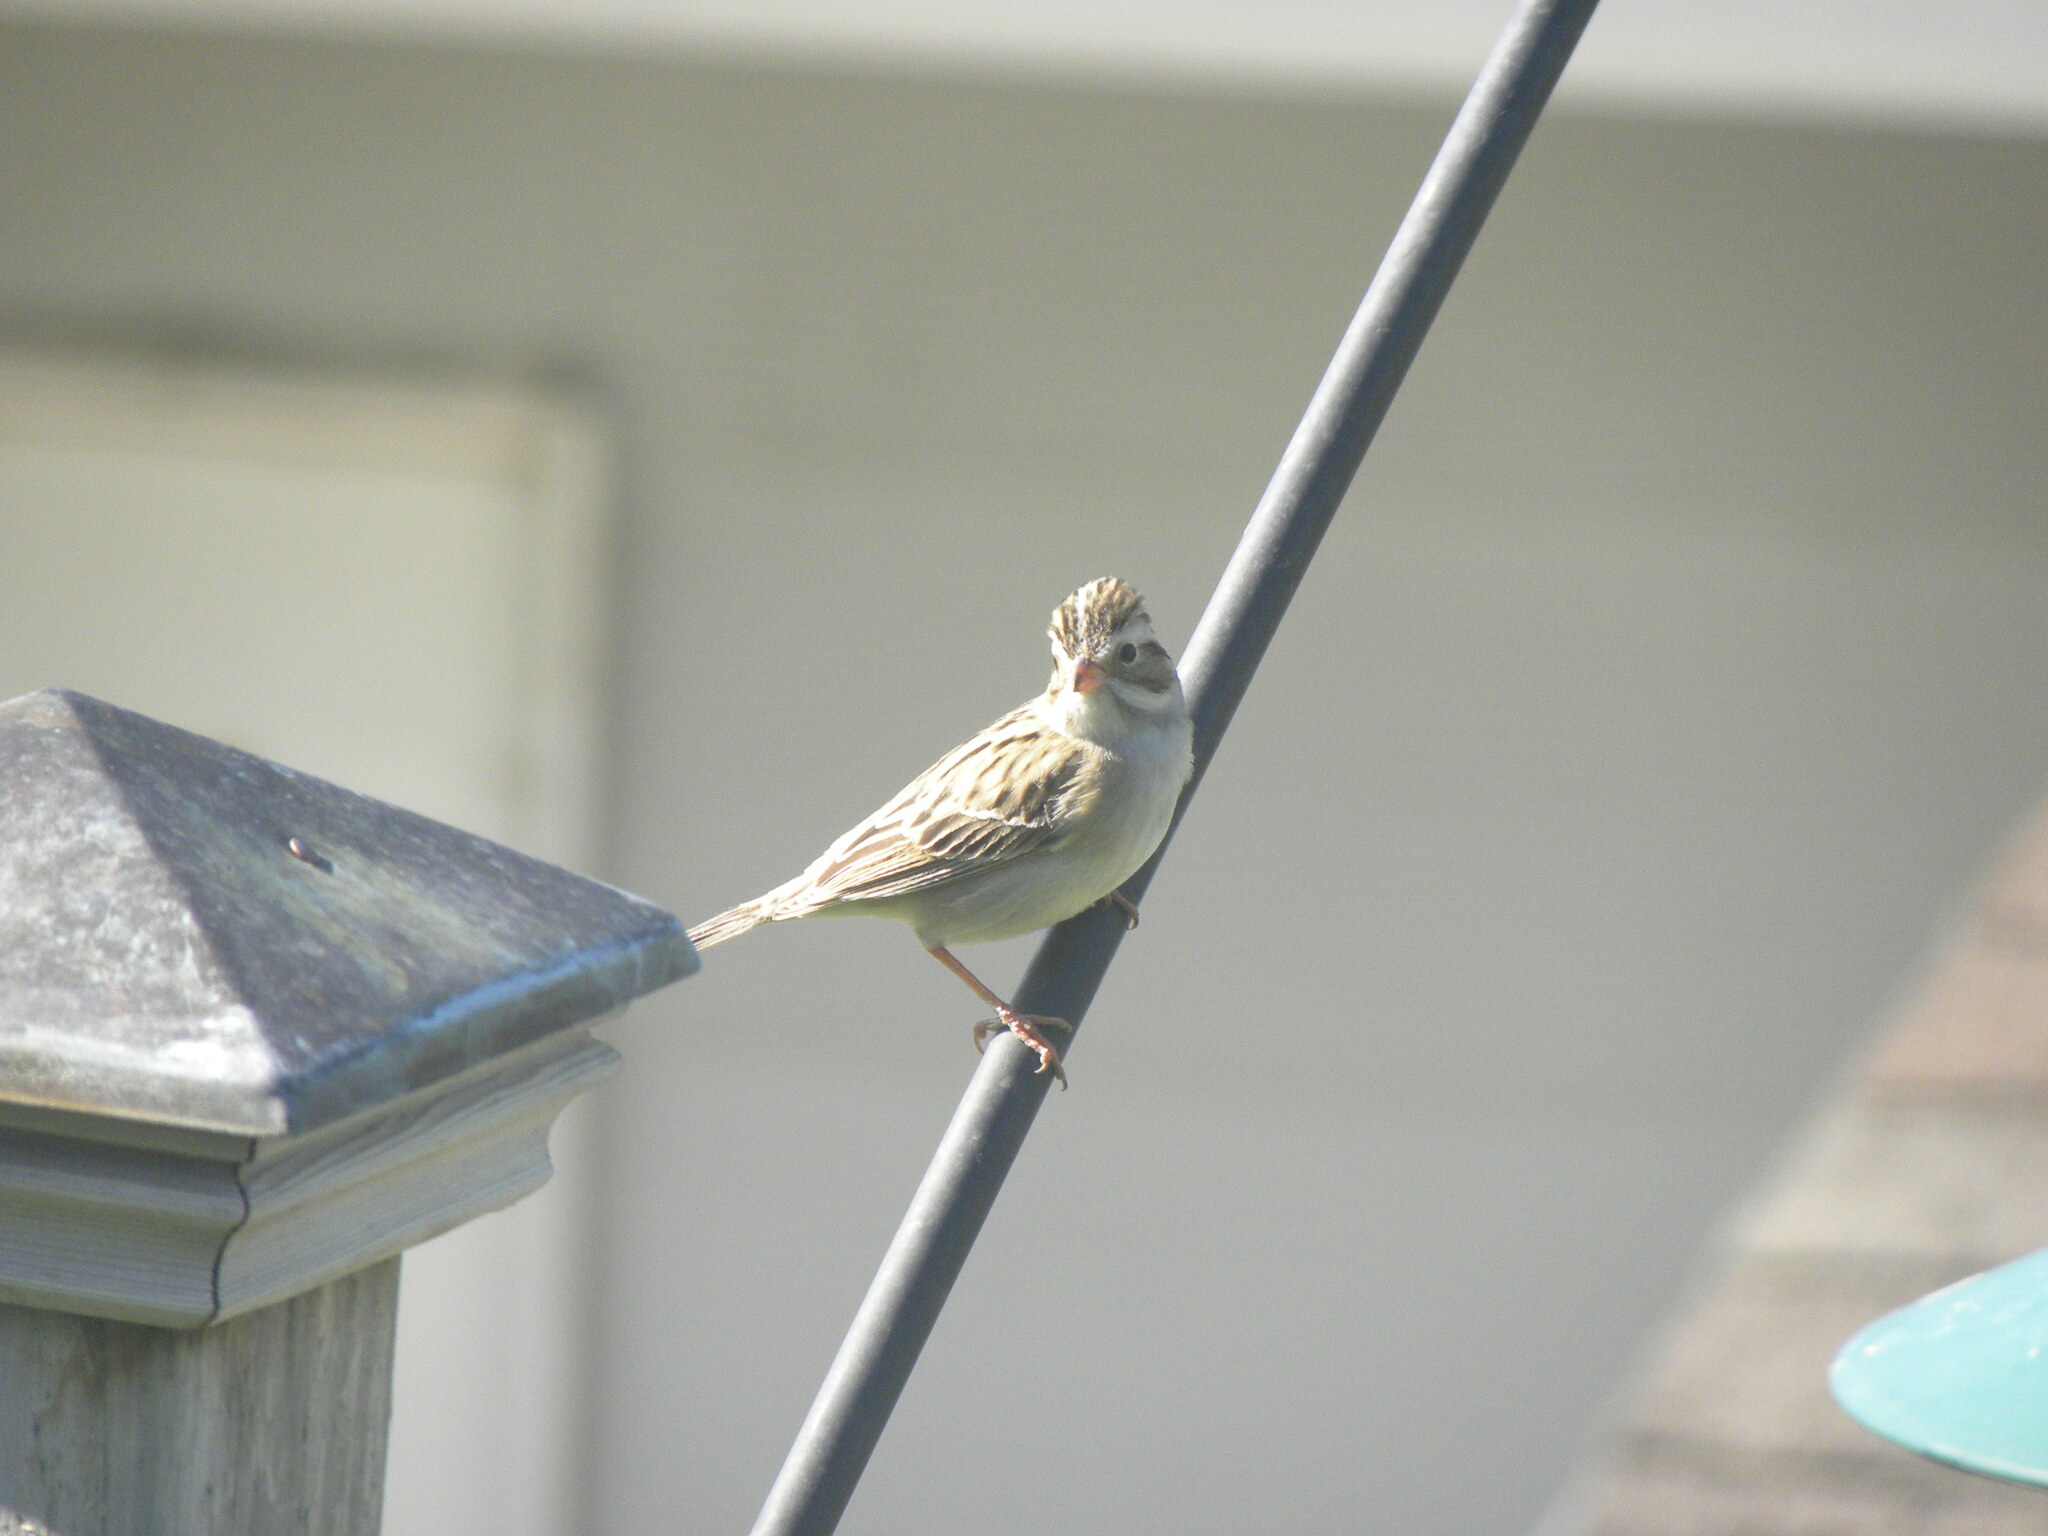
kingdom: Animalia
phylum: Chordata
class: Aves
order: Passeriformes
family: Passerellidae
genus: Spizella
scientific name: Spizella pallida
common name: Clay-colored sparrow
